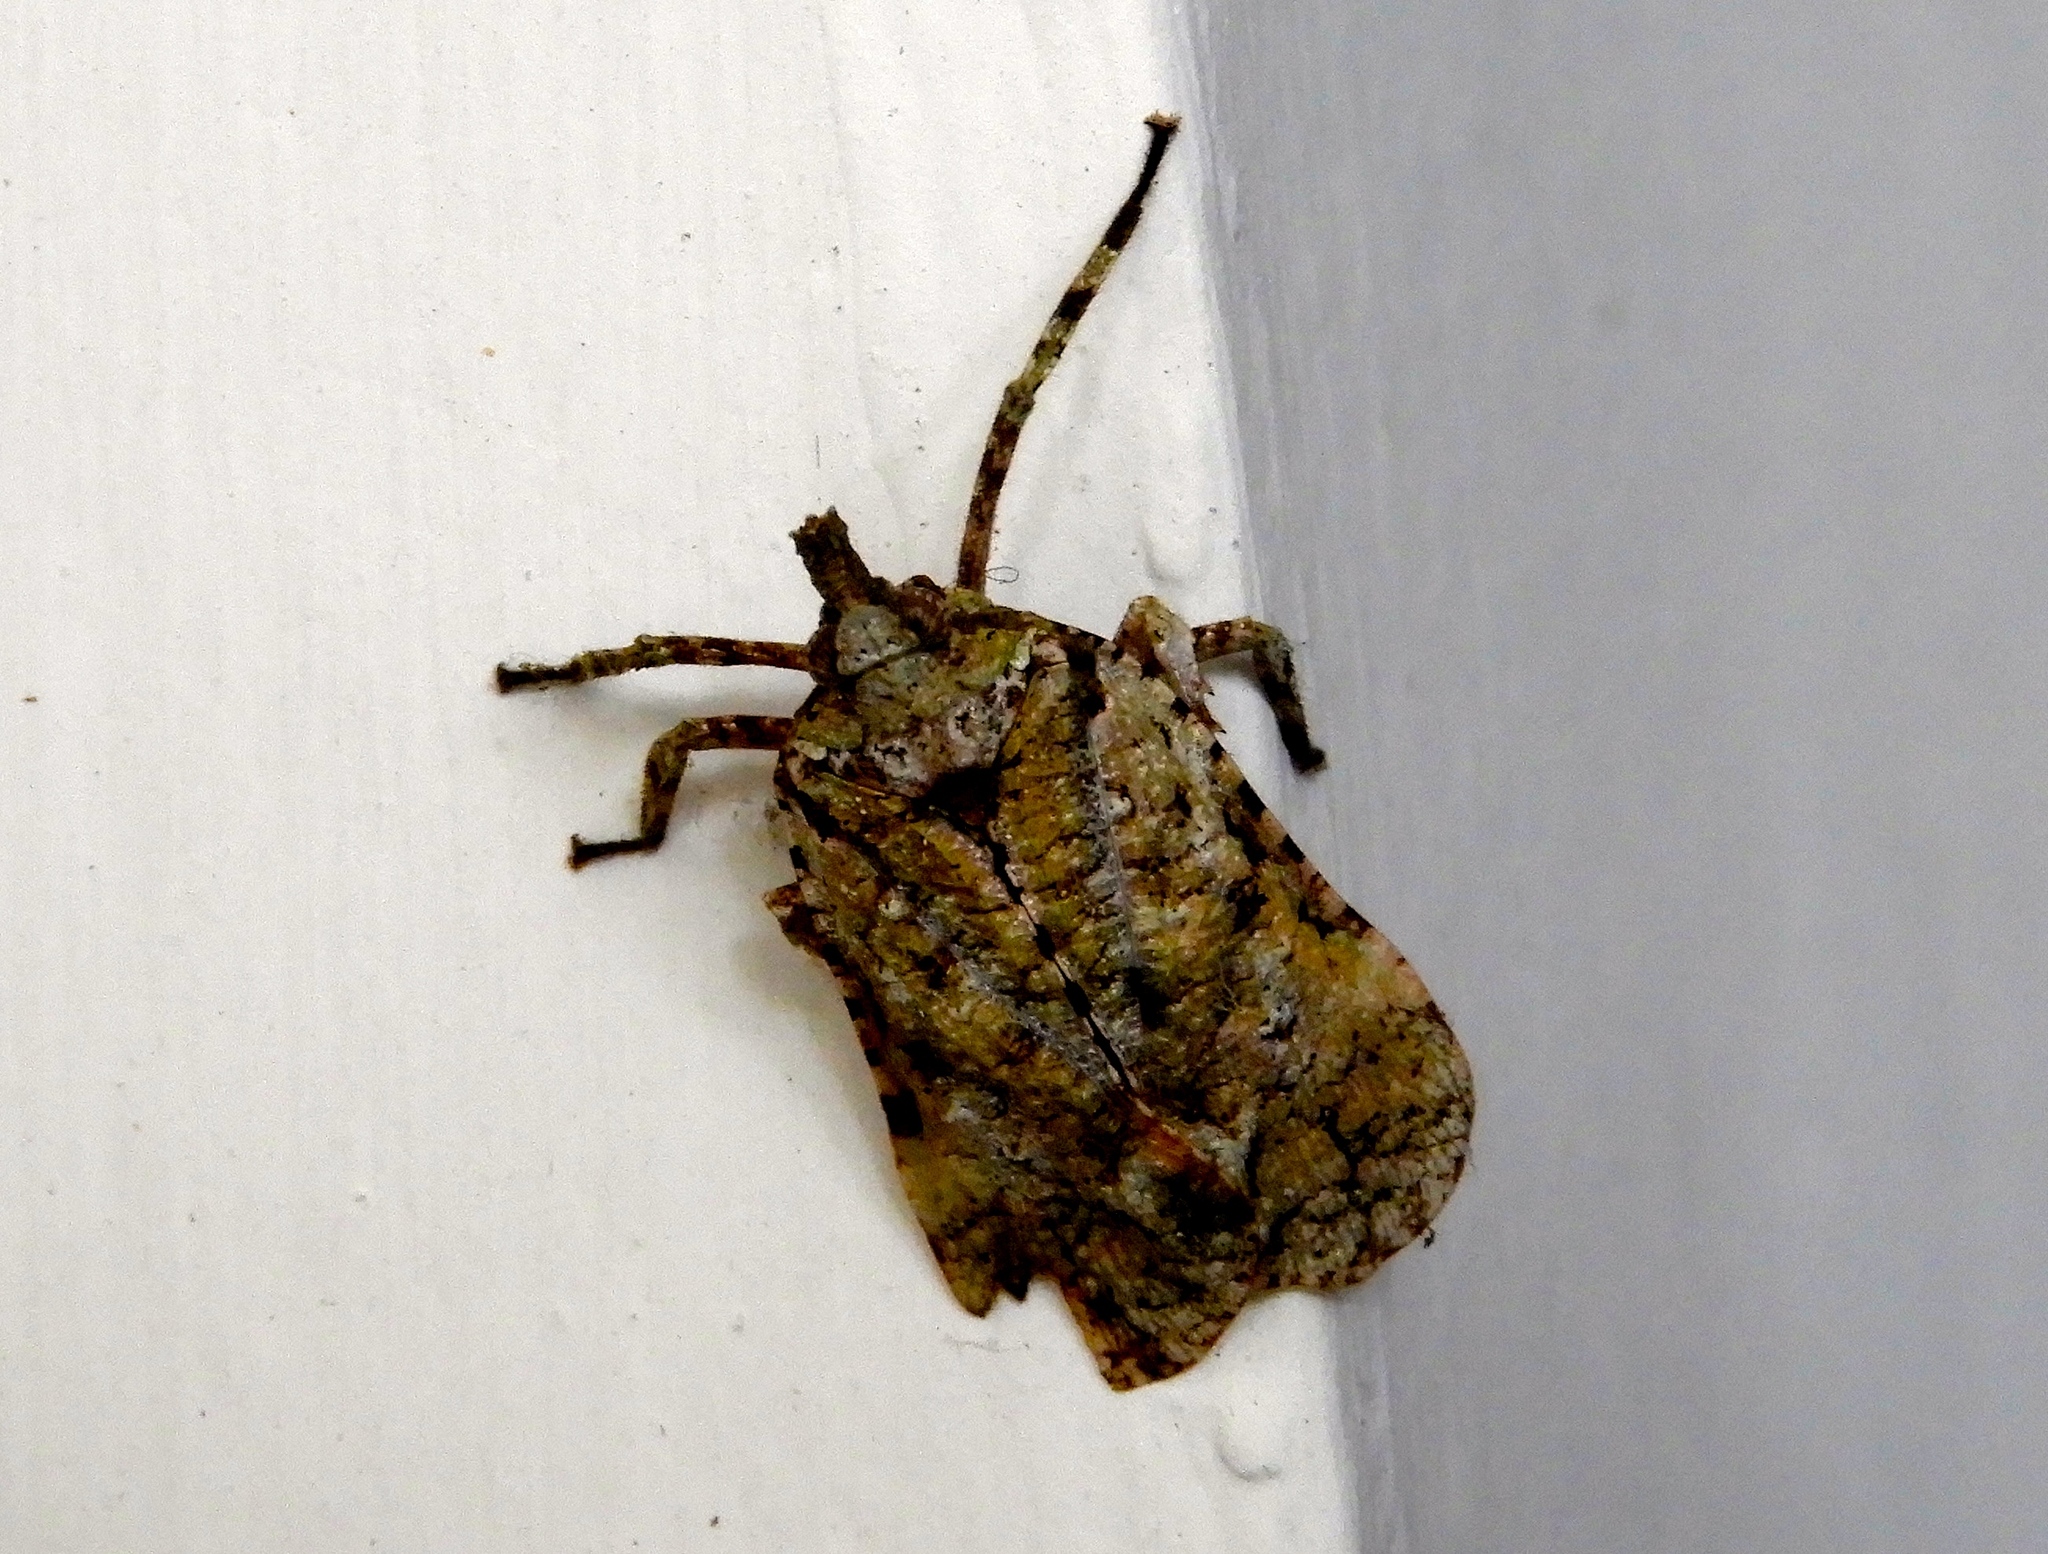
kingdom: Animalia
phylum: Arthropoda
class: Insecta
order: Hemiptera
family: Fulgoridae
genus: Aphrodisias
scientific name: Aphrodisias shaman
